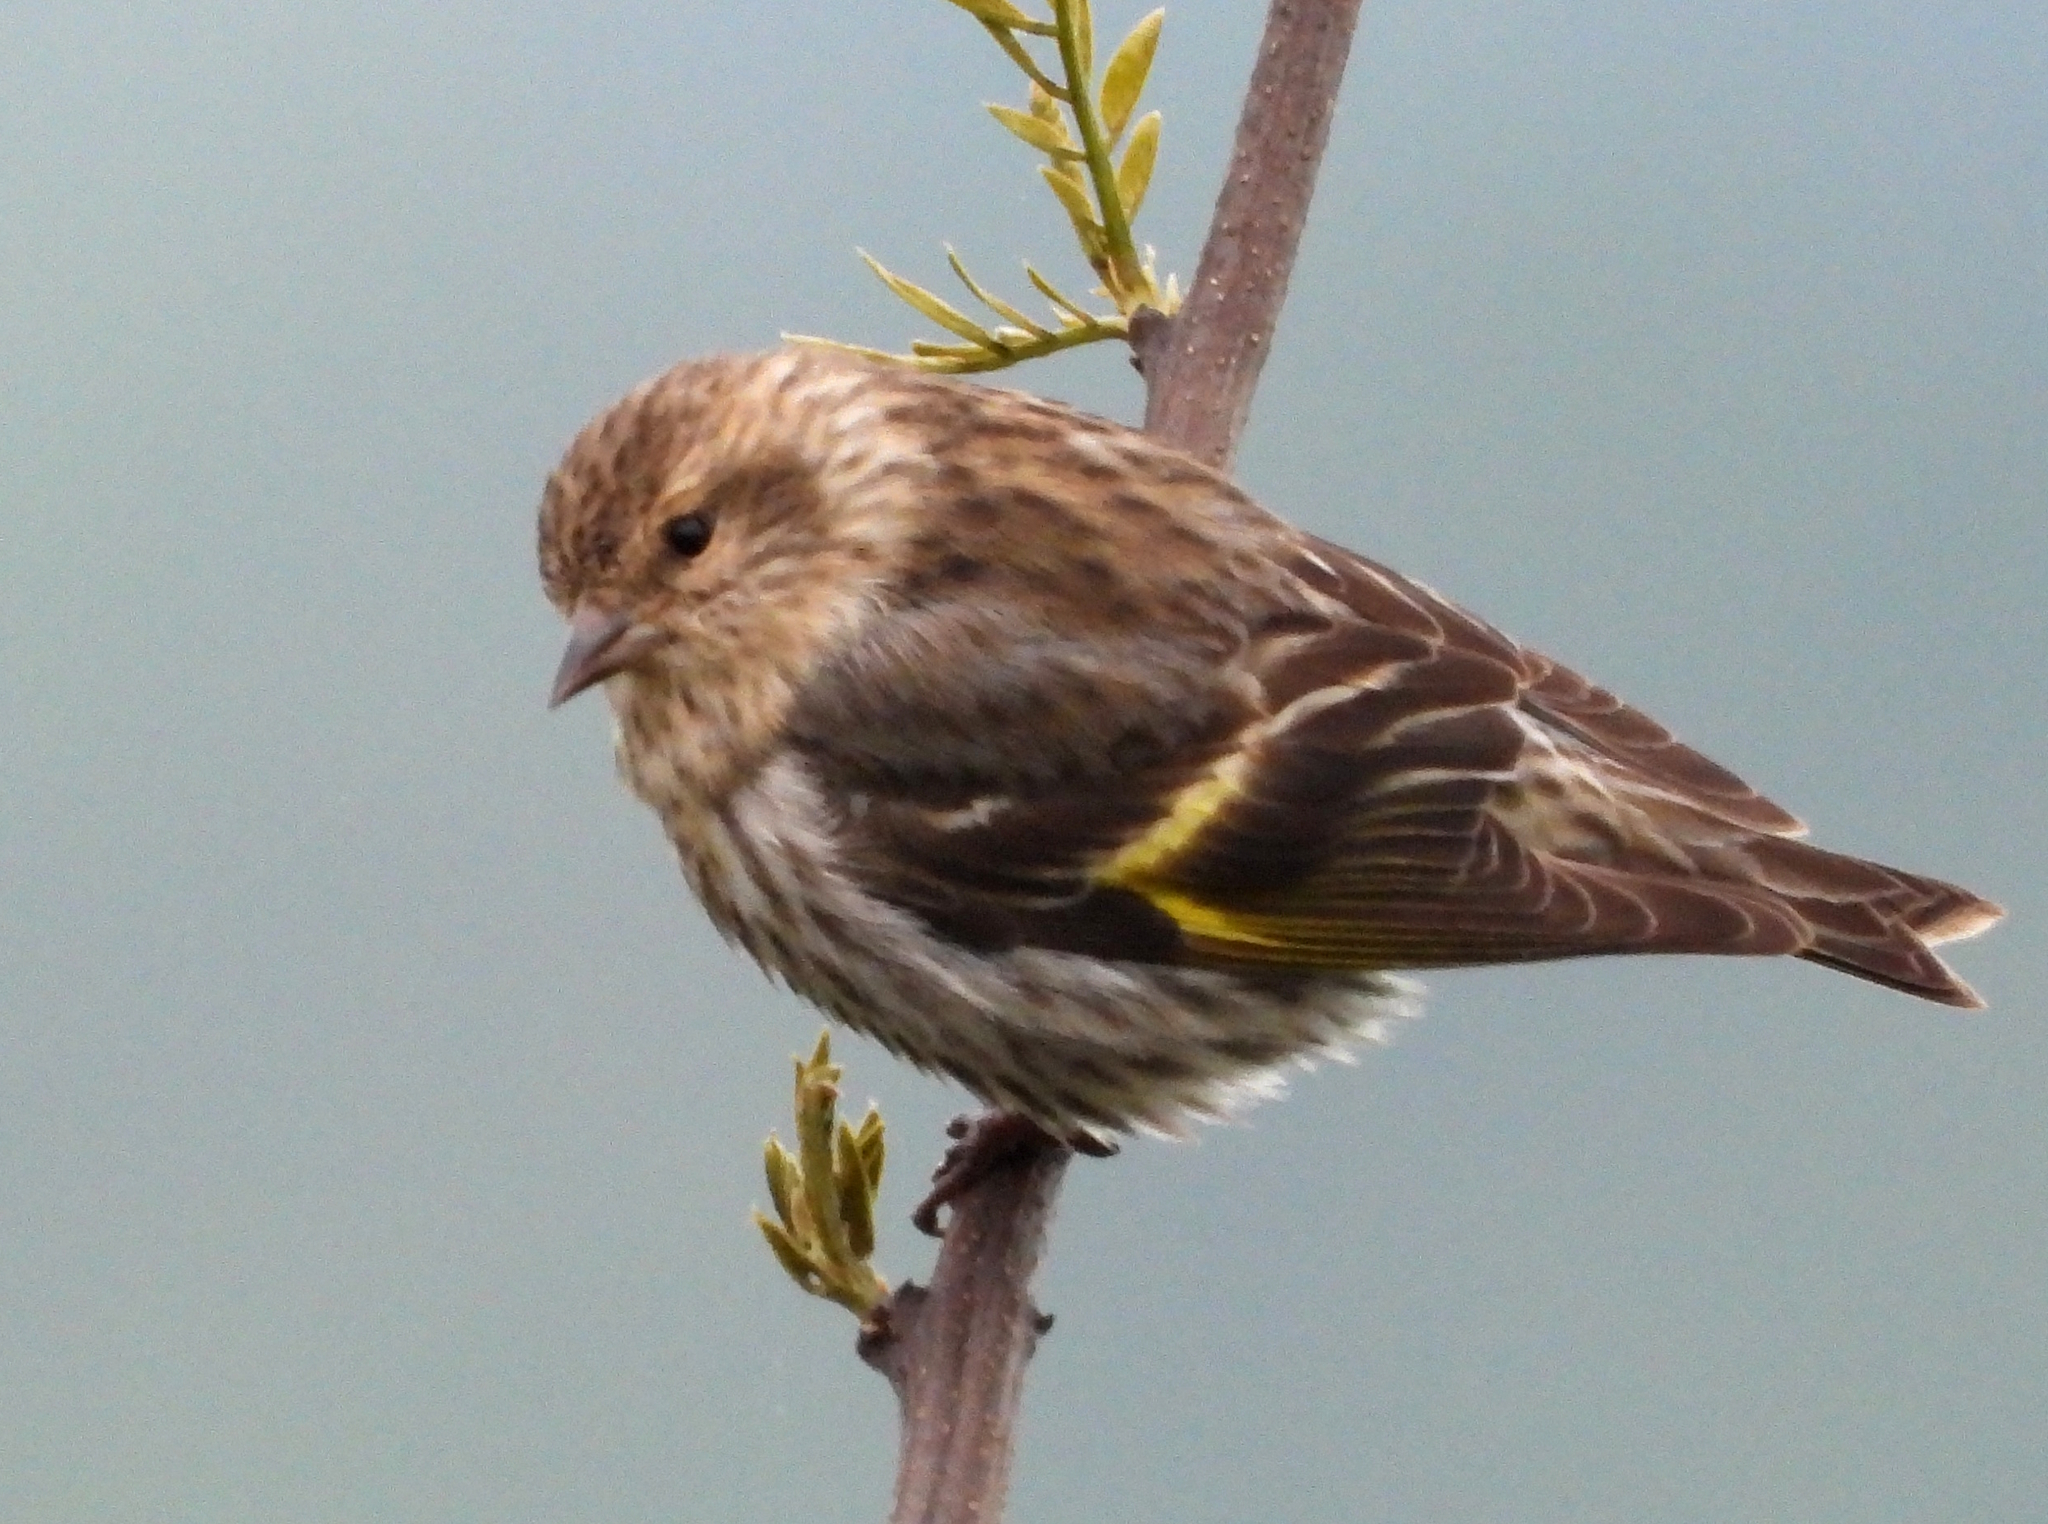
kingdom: Animalia
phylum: Chordata
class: Aves
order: Passeriformes
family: Fringillidae
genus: Spinus
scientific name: Spinus pinus
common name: Pine siskin
